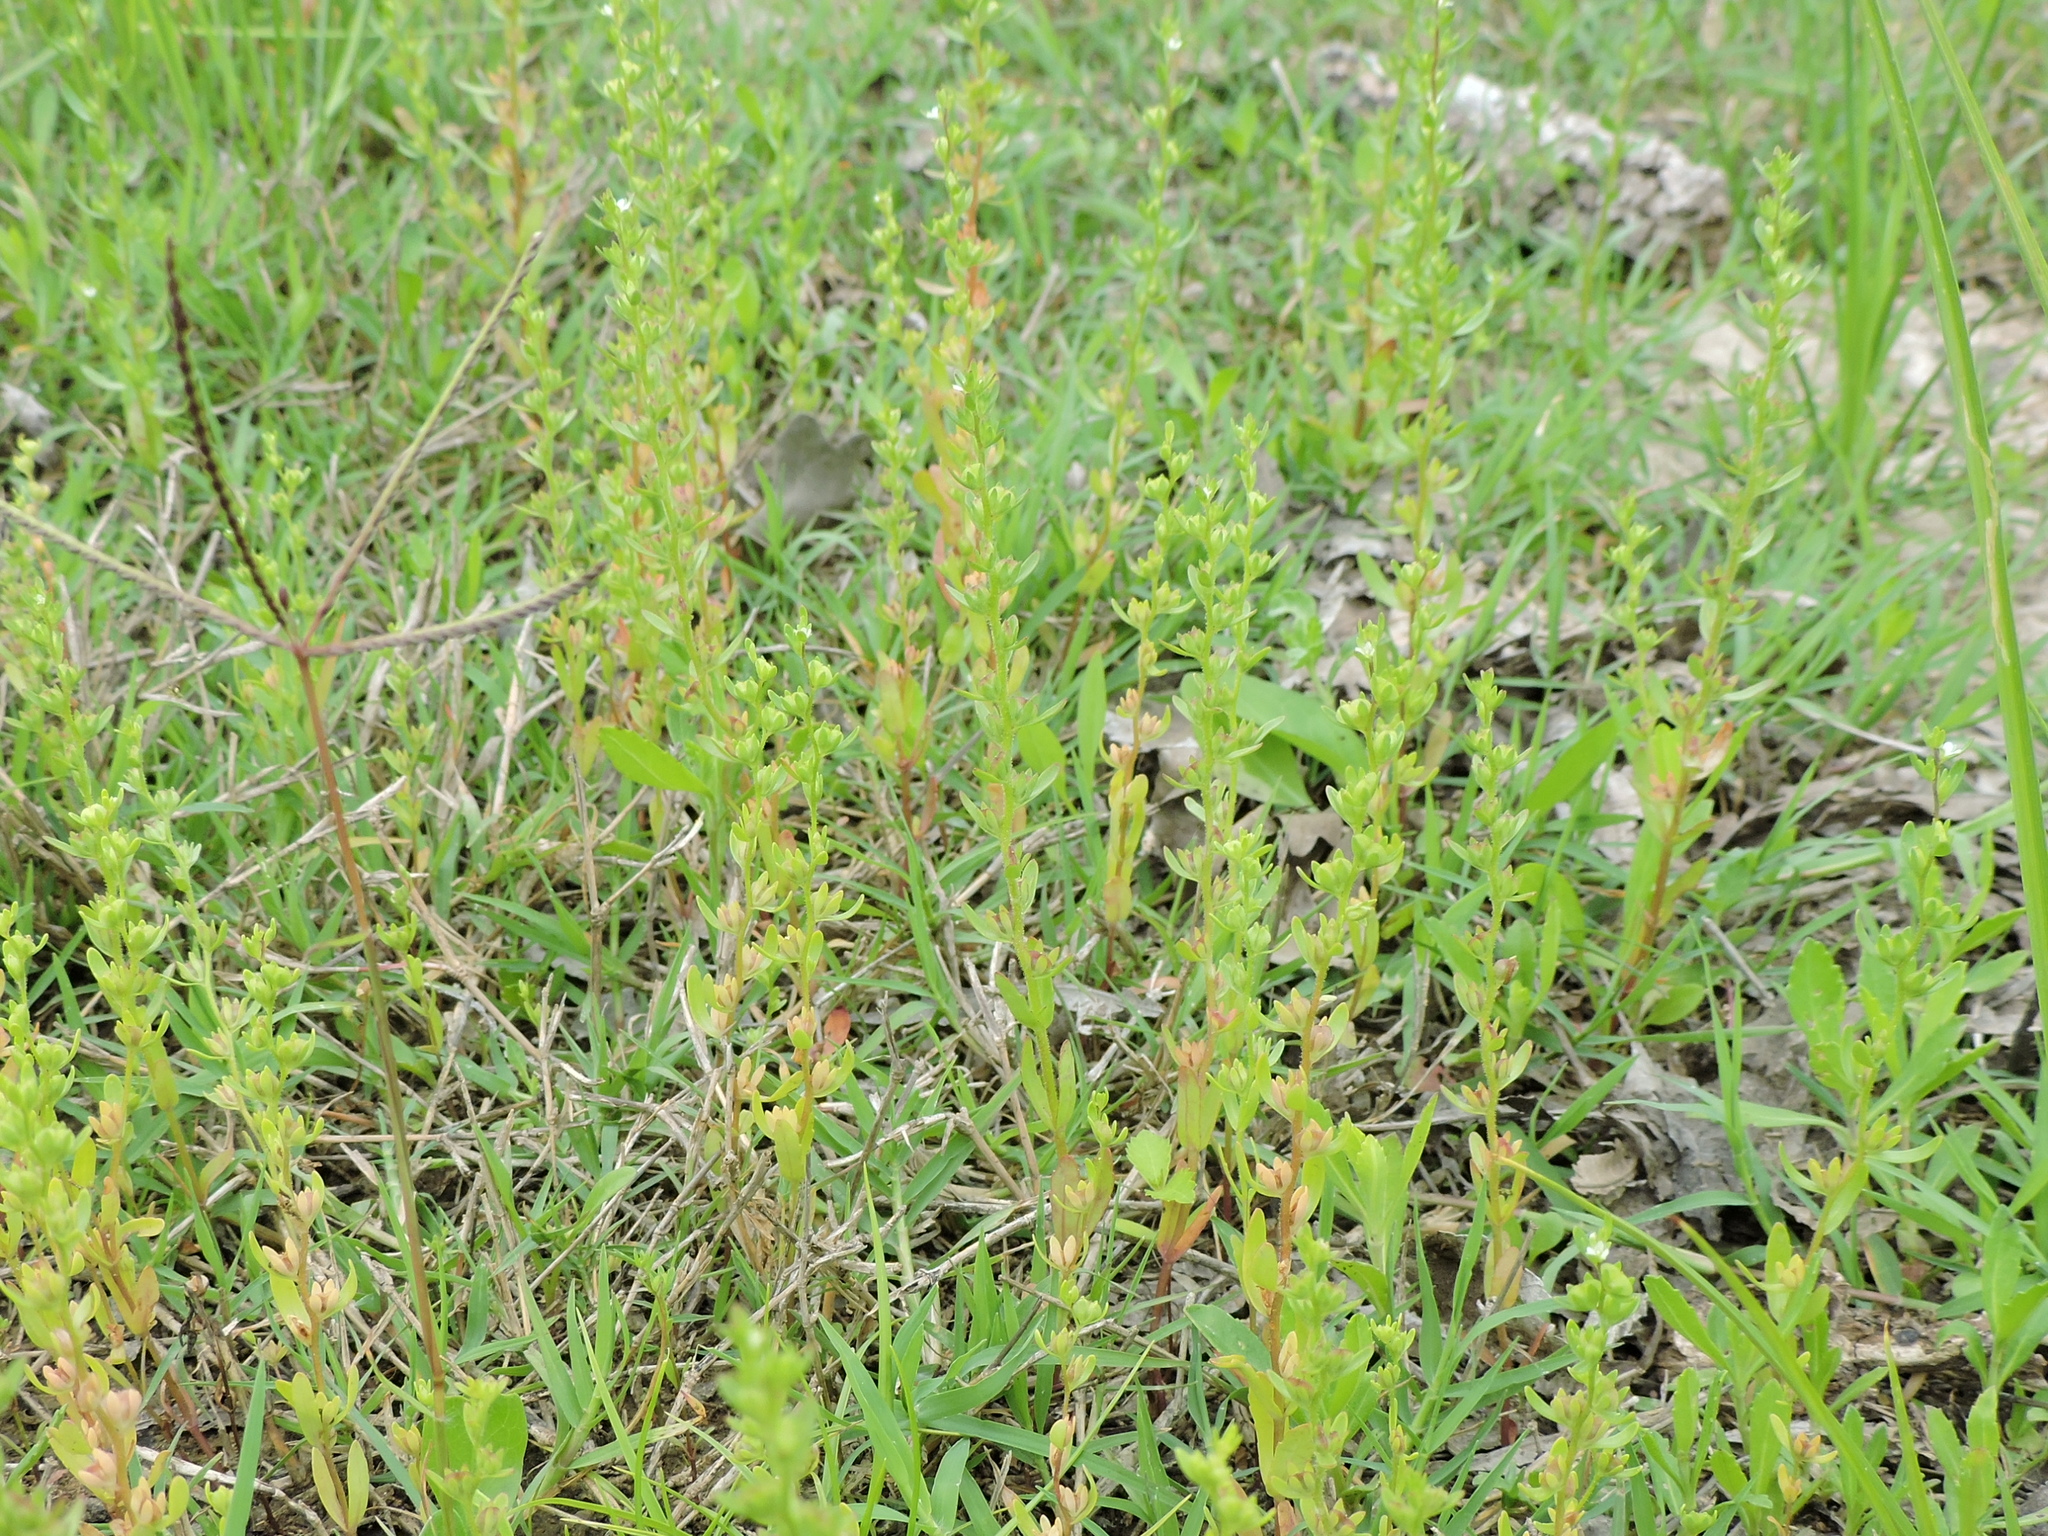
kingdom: Plantae
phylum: Tracheophyta
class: Magnoliopsida
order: Lamiales
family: Plantaginaceae
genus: Veronica
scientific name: Veronica peregrina
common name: Neckweed
